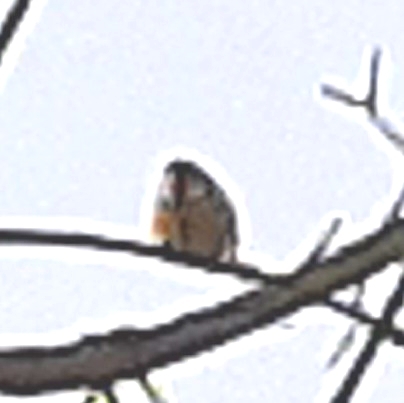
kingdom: Animalia
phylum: Chordata
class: Aves
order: Passeriformes
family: Paridae
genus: Cyanistes
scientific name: Cyanistes caeruleus
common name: Eurasian blue tit
